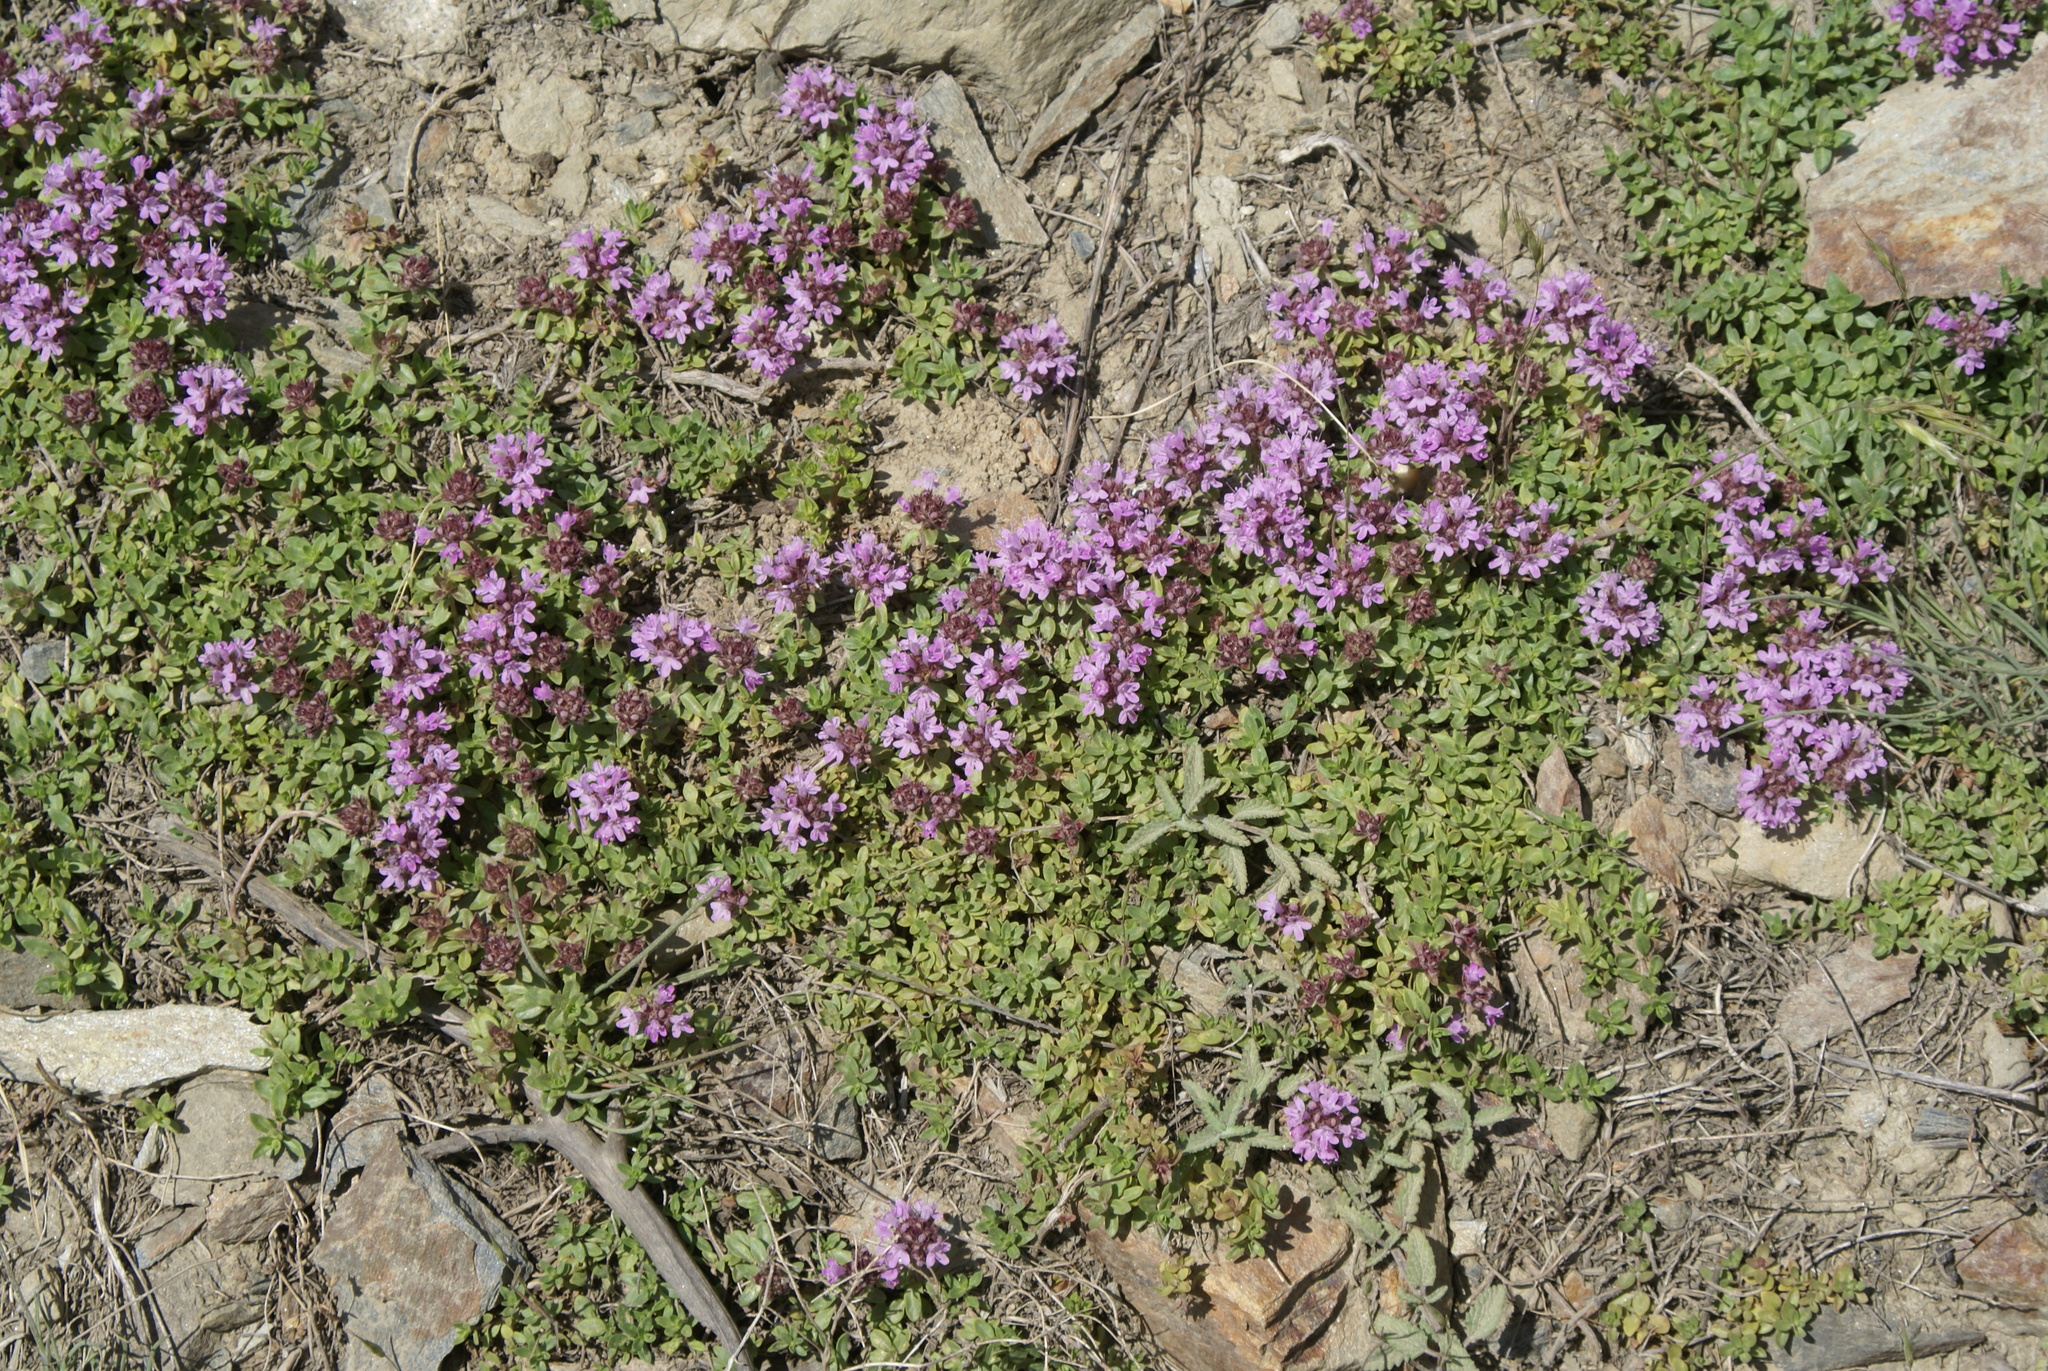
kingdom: Plantae
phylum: Tracheophyta
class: Magnoliopsida
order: Lamiales
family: Lamiaceae
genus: Thymus
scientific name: Thymus linearis
